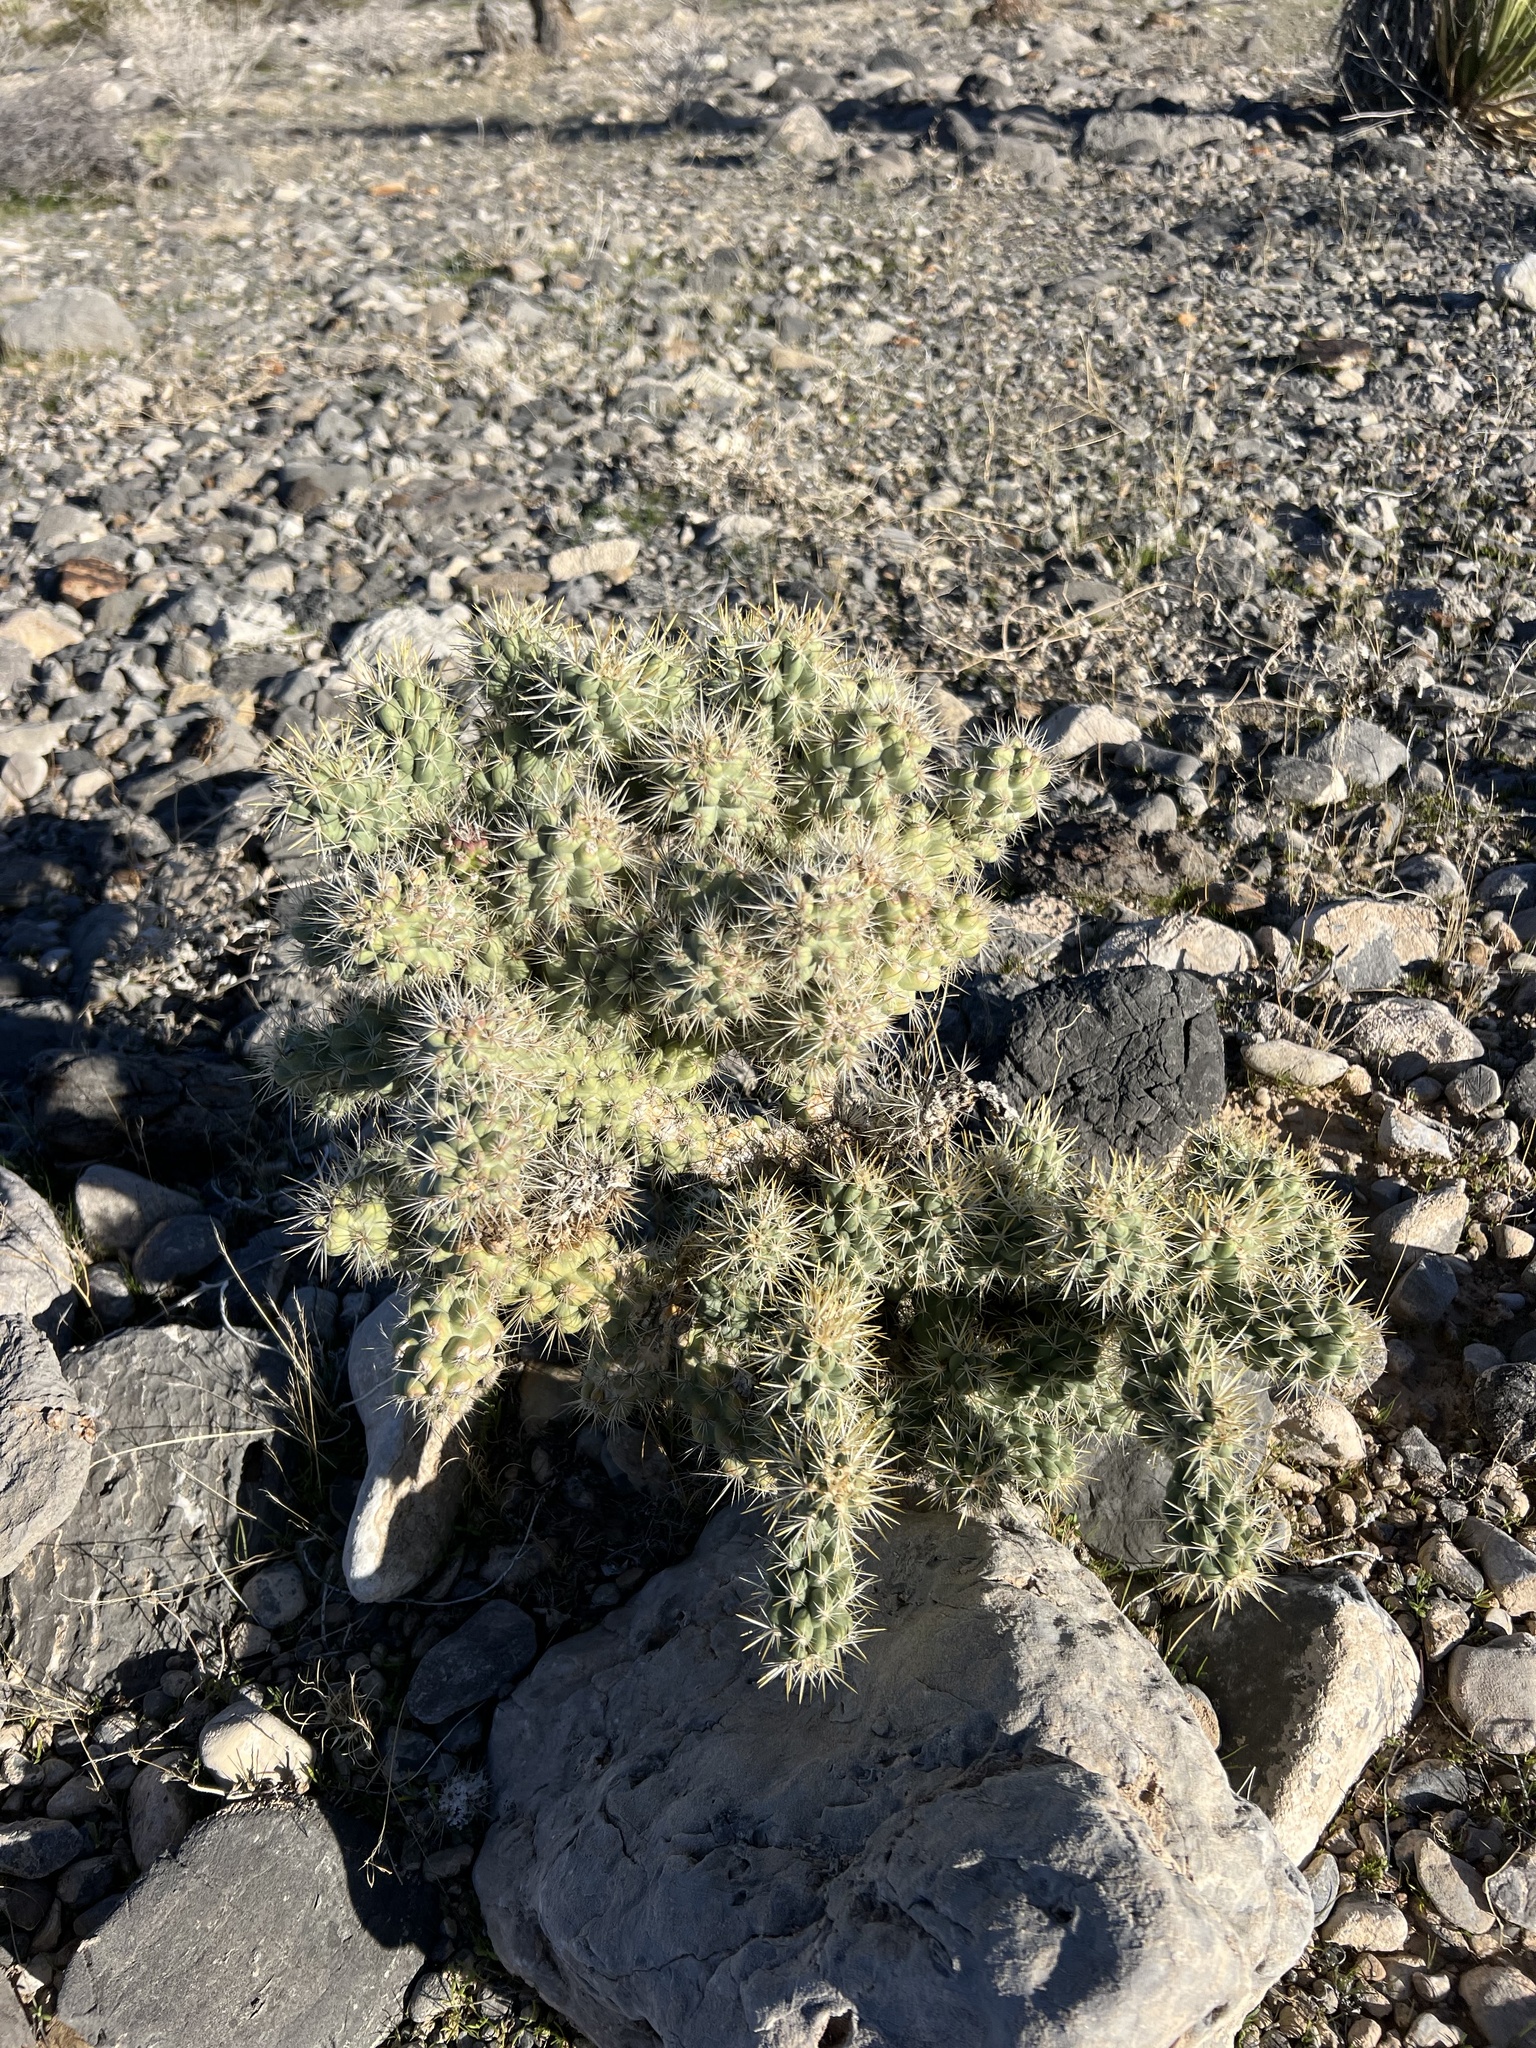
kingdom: Plantae
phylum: Tracheophyta
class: Magnoliopsida
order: Caryophyllales
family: Cactaceae
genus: Cylindropuntia
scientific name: Cylindropuntia echinocarpa
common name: Ground cholla
